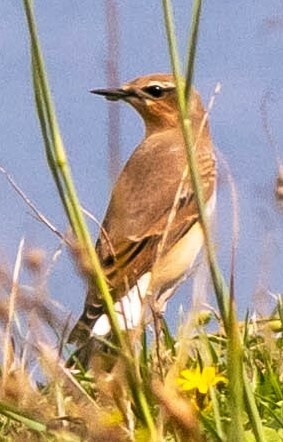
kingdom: Animalia
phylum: Chordata
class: Aves
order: Passeriformes
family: Muscicapidae
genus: Oenanthe
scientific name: Oenanthe oenanthe
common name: Northern wheatear
